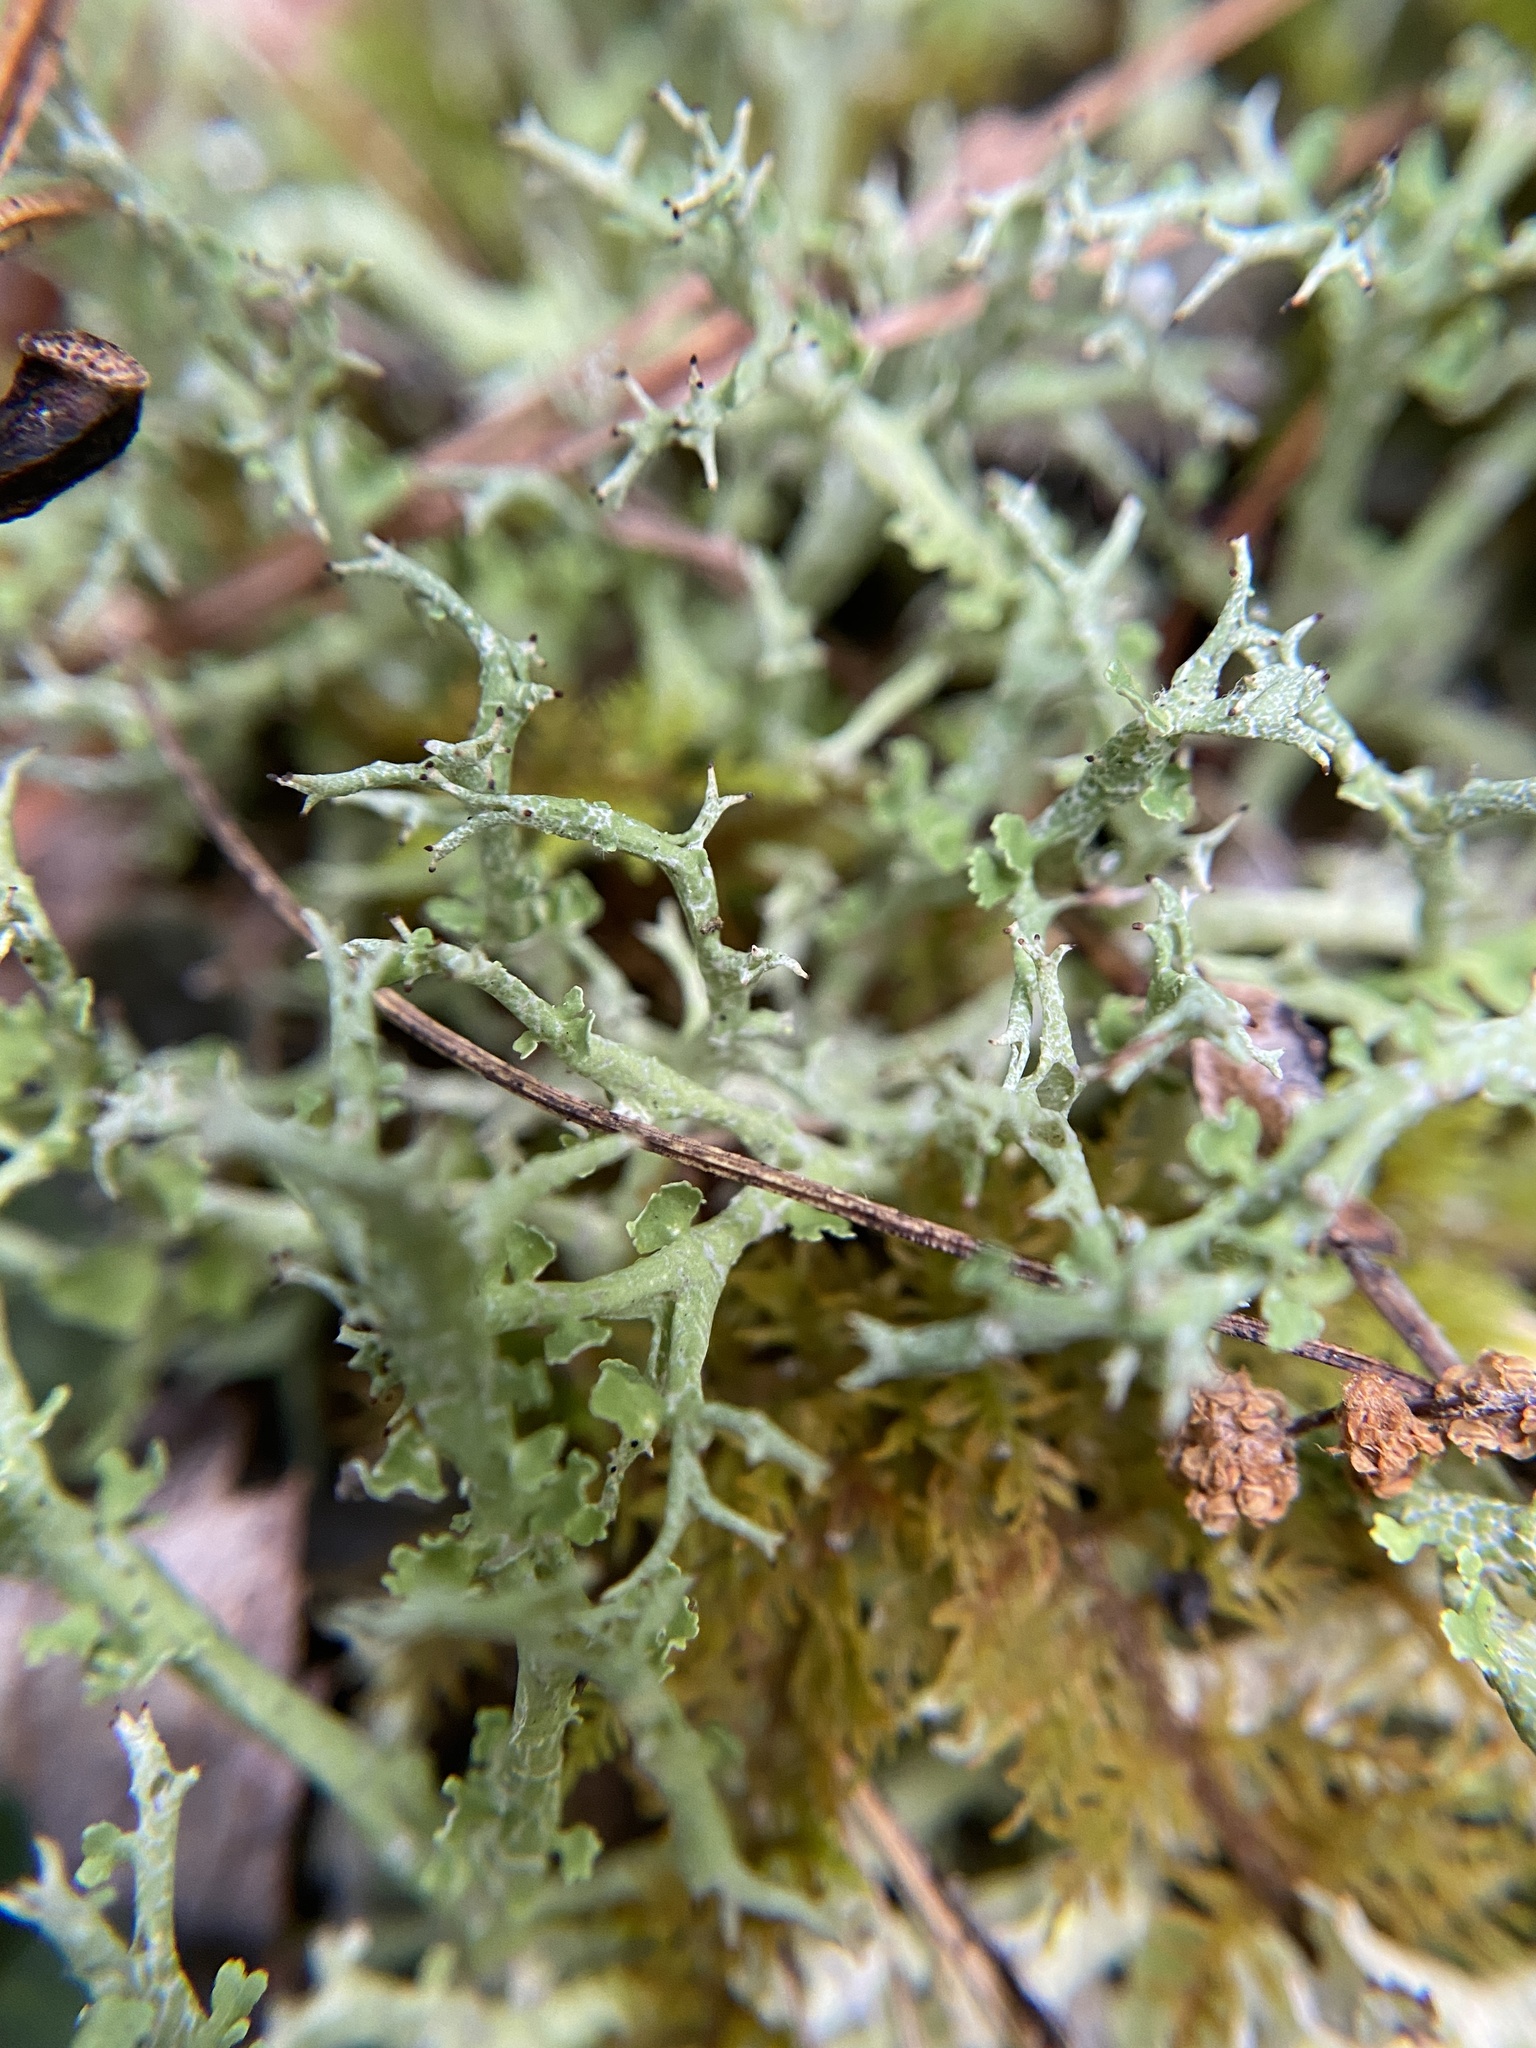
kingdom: Fungi
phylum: Ascomycota
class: Lecanoromycetes
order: Lecanorales
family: Cladoniaceae
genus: Cladonia
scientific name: Cladonia furcata
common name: Many-forked cladonia
